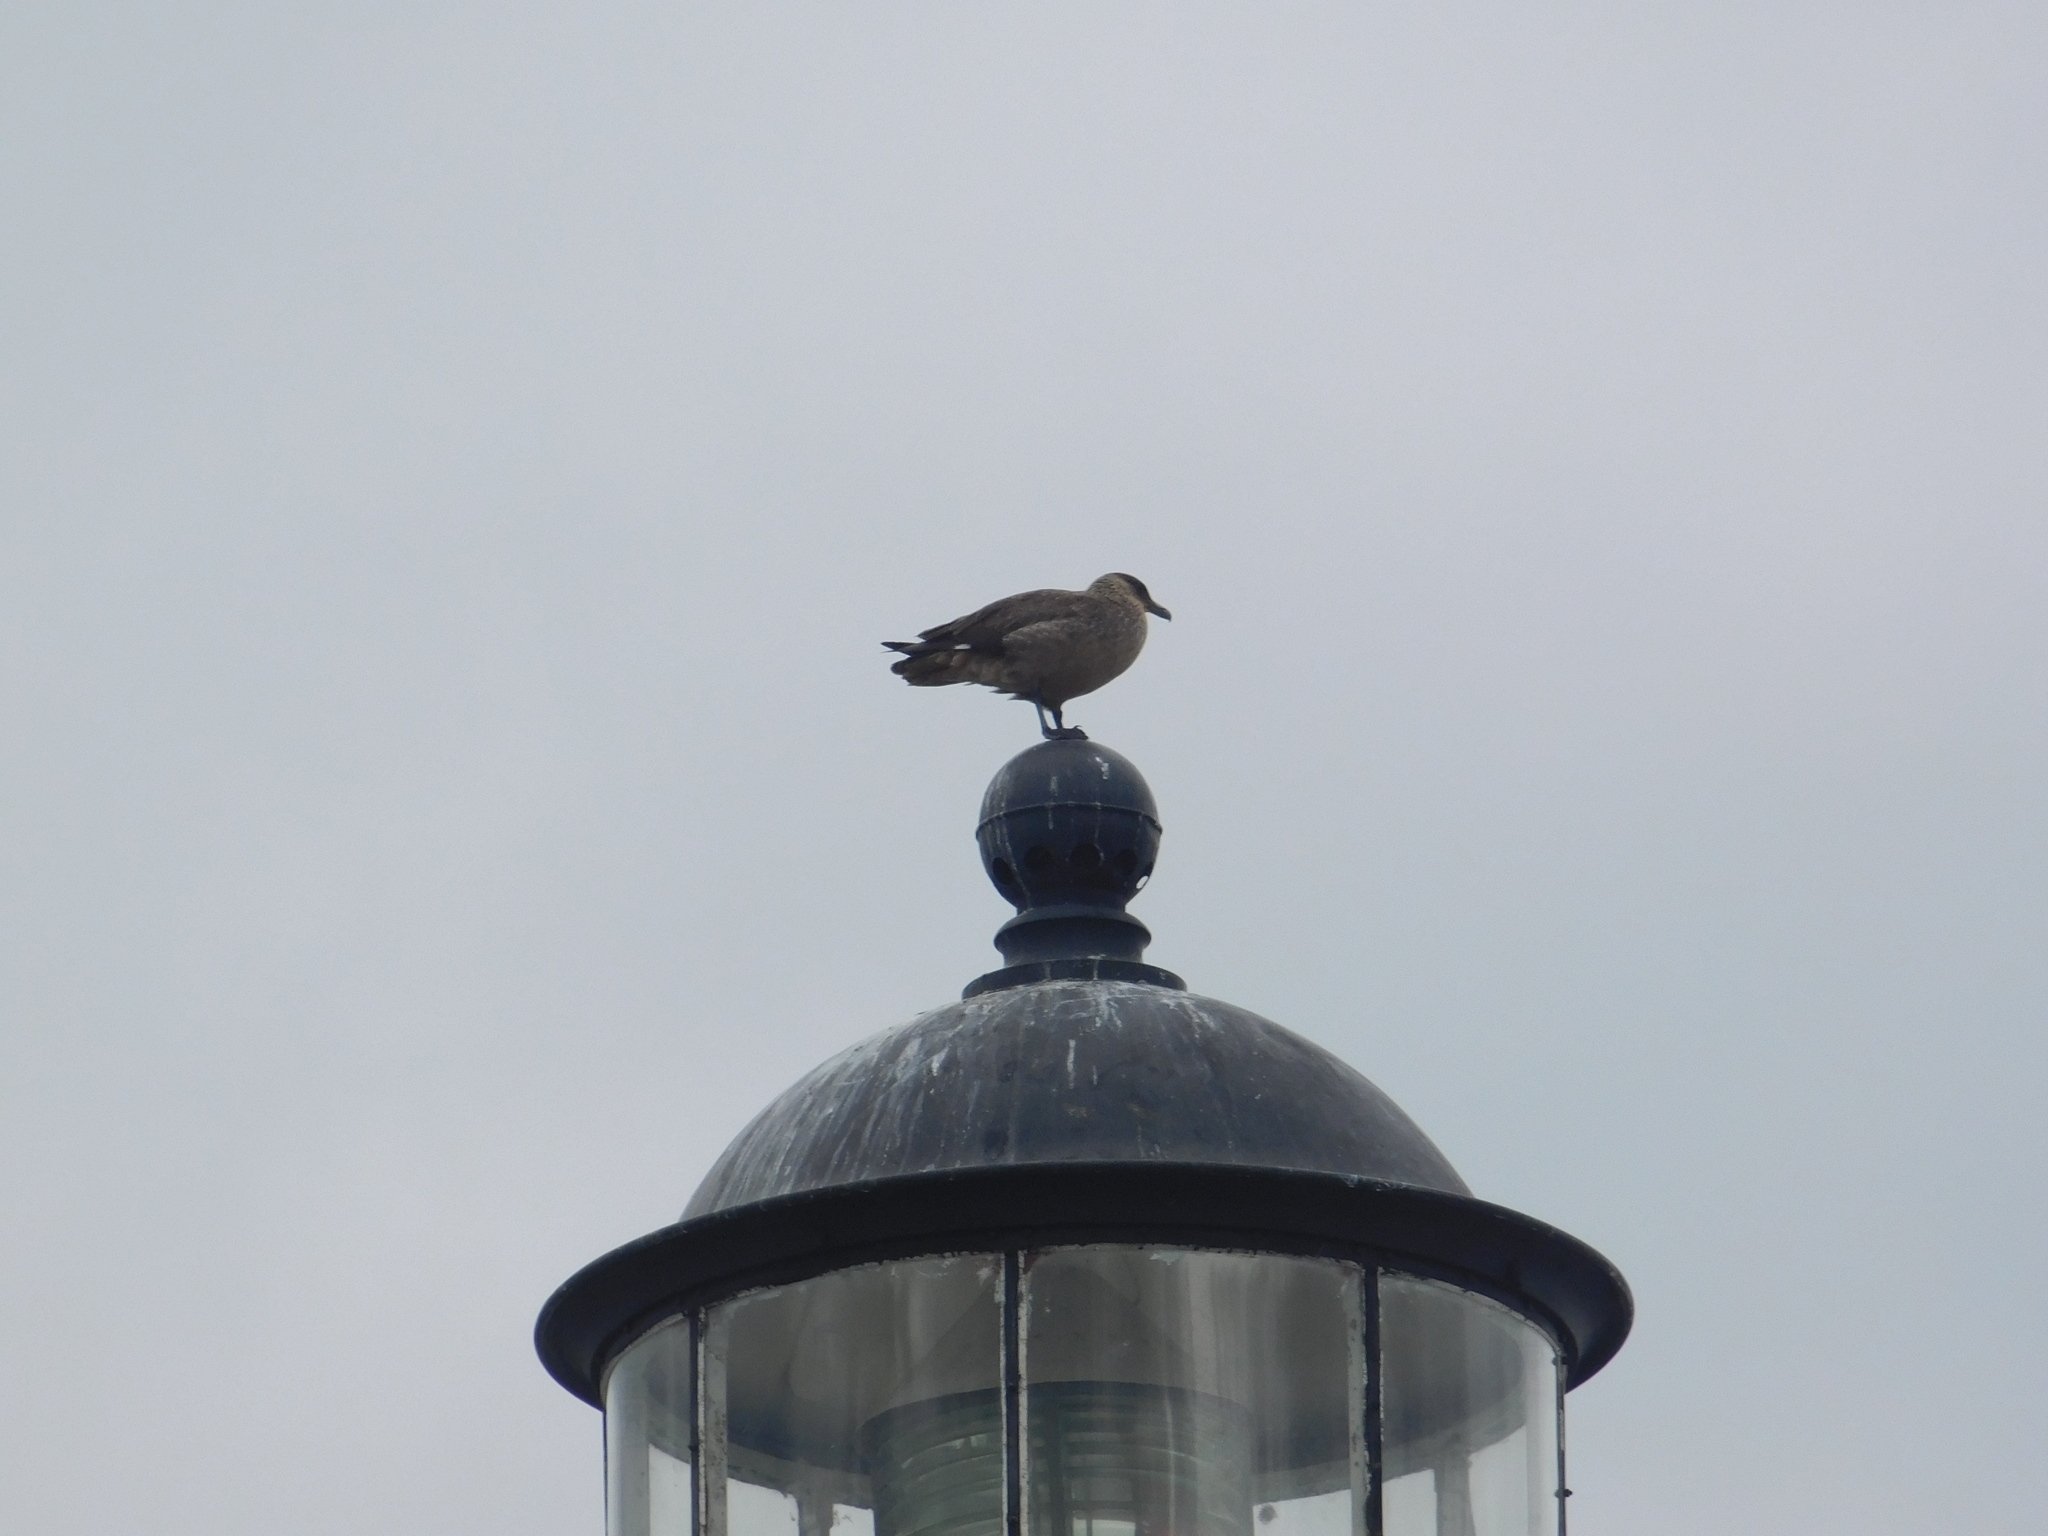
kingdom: Animalia
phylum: Chordata
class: Aves
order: Charadriiformes
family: Stercorariidae
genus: Stercorarius
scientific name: Stercorarius antarcticus
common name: Brown skua
